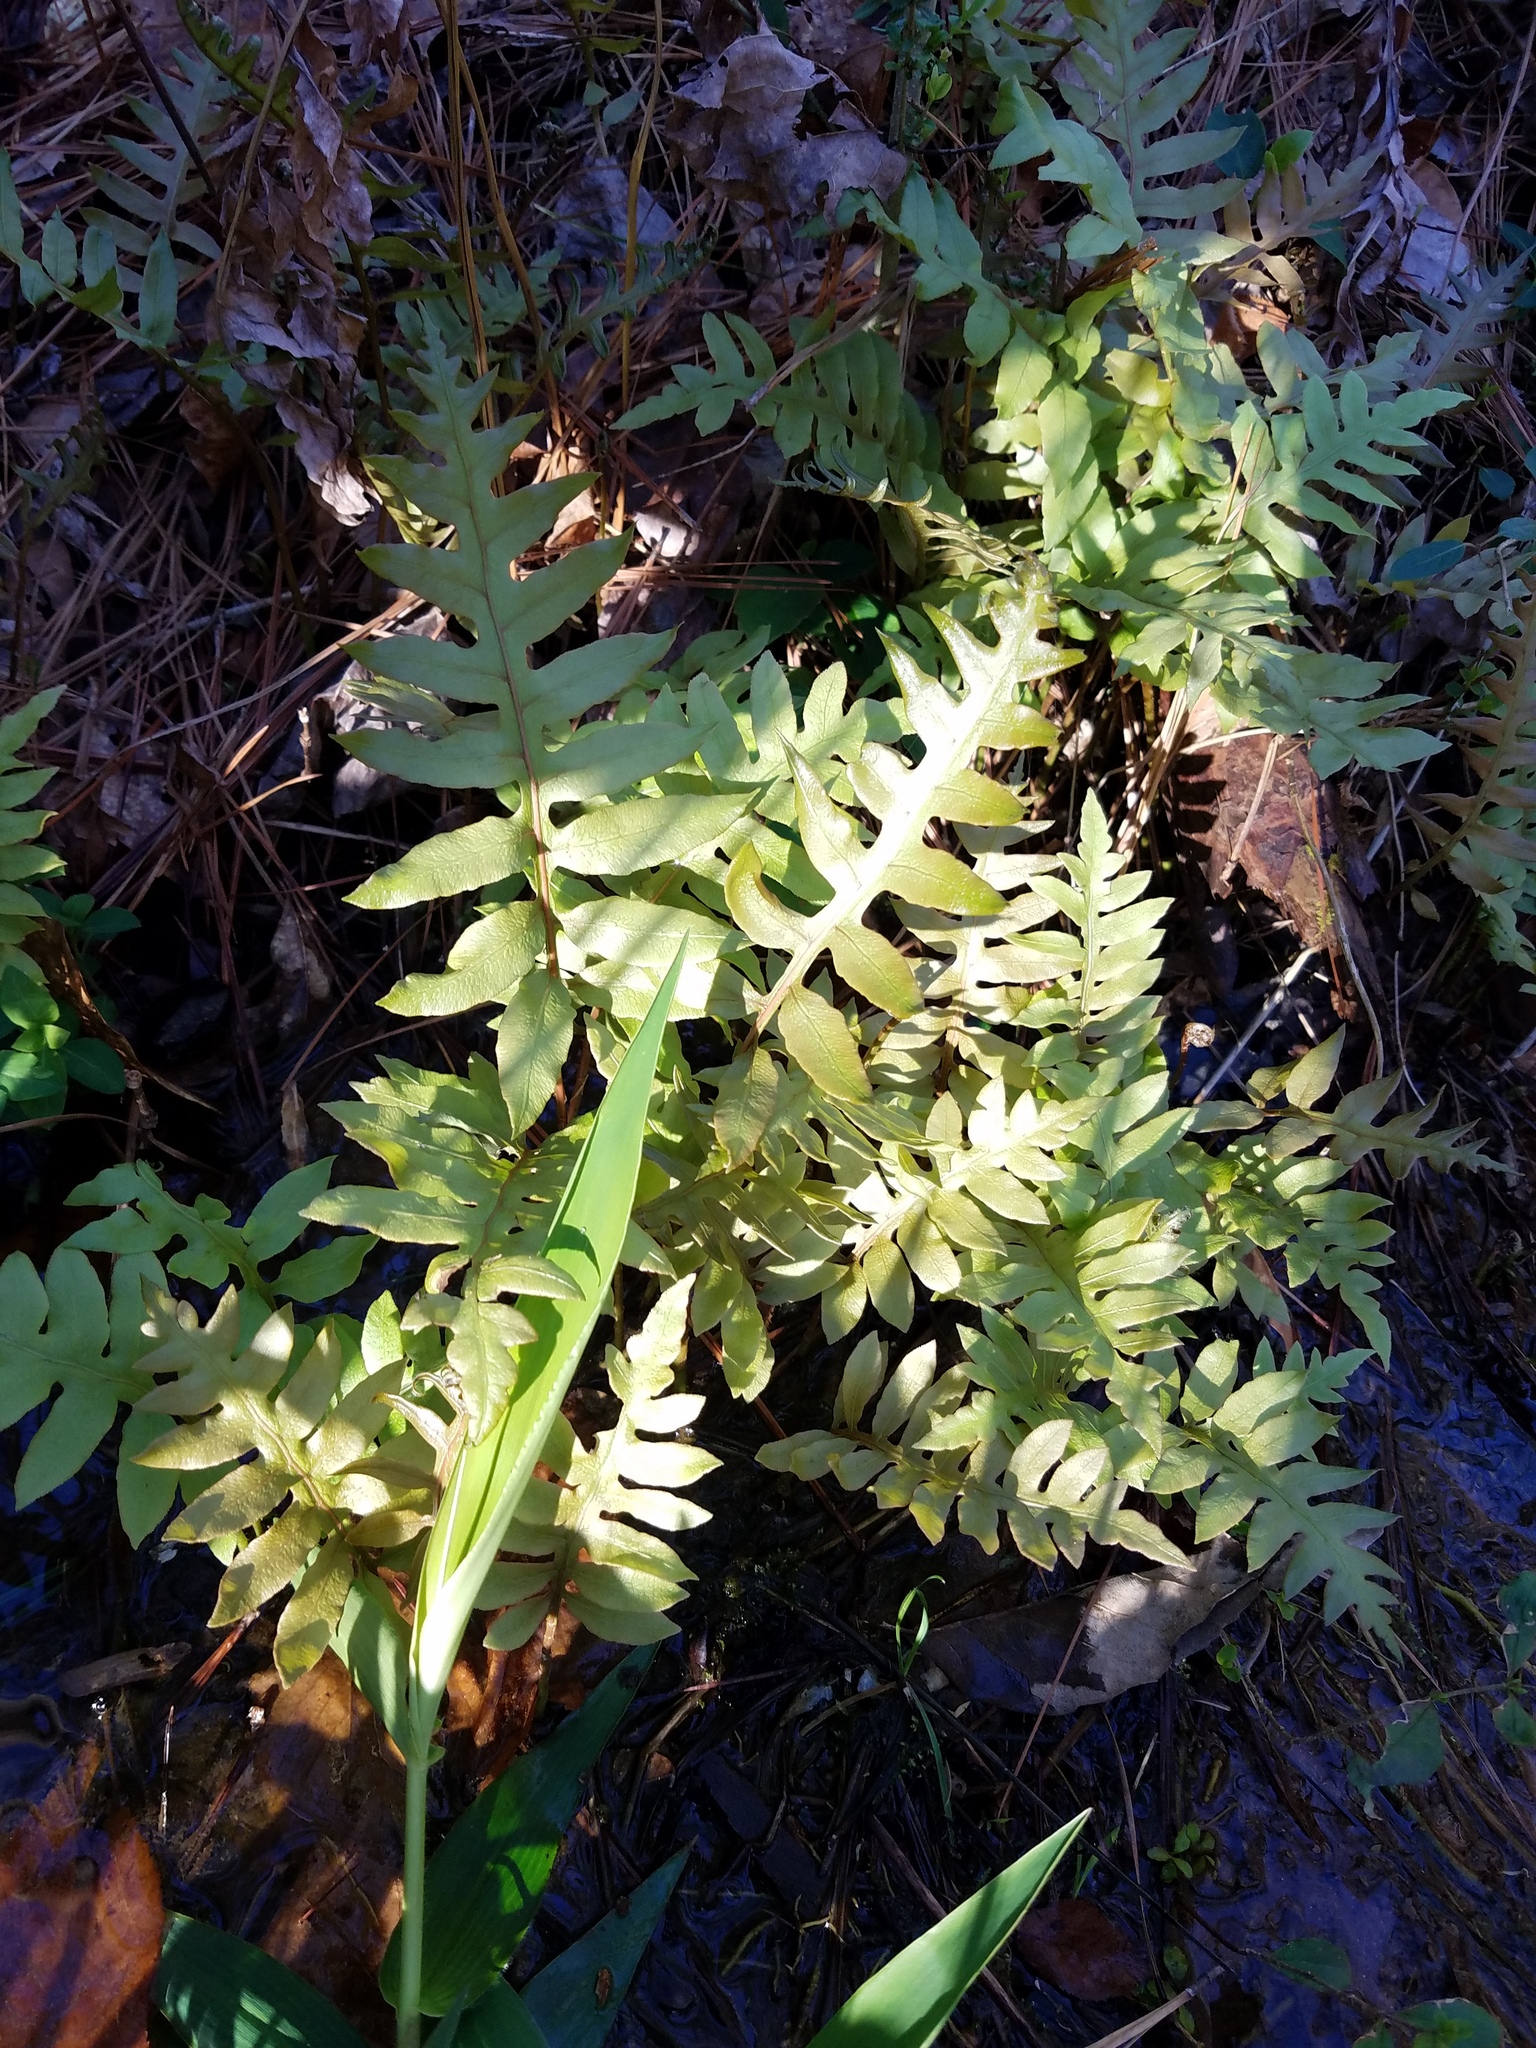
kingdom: Plantae
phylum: Tracheophyta
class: Polypodiopsida
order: Polypodiales
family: Blechnaceae
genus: Lorinseria
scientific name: Lorinseria areolata
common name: Dwarf chain fern
